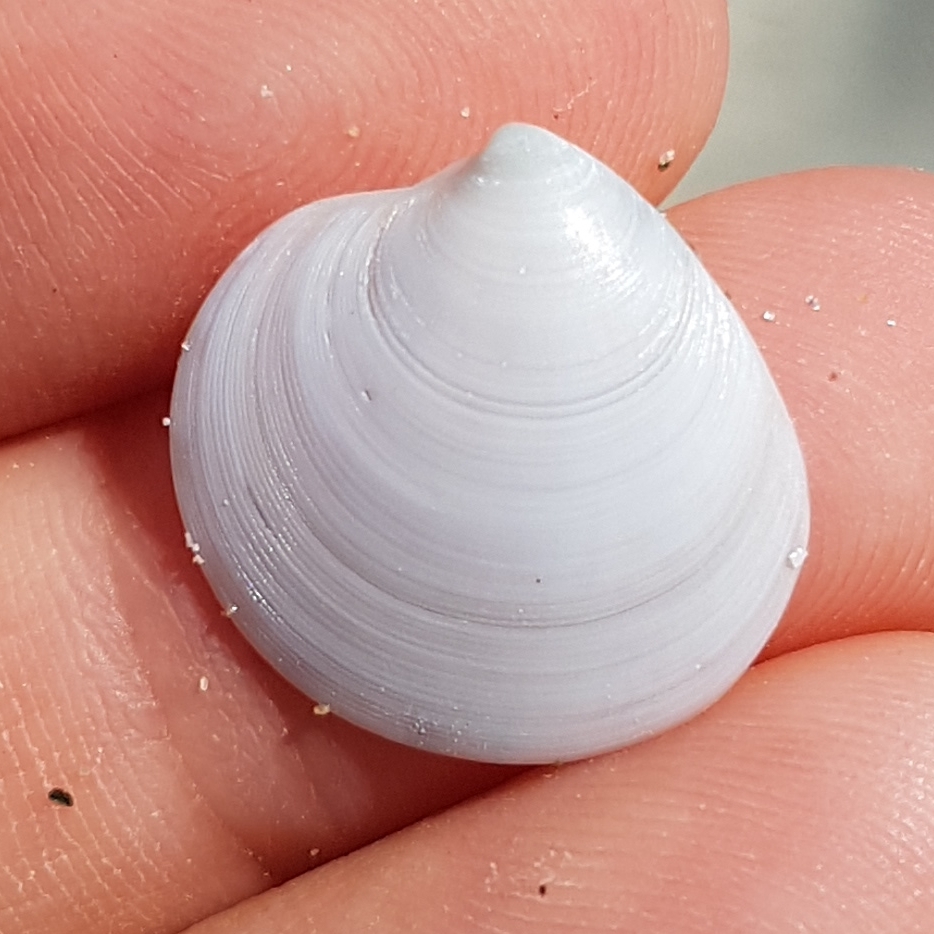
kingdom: Animalia
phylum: Mollusca
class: Bivalvia
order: Venerida
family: Veneridae
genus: Dosinia
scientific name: Dosinia lupinus
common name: Smooth artemis
